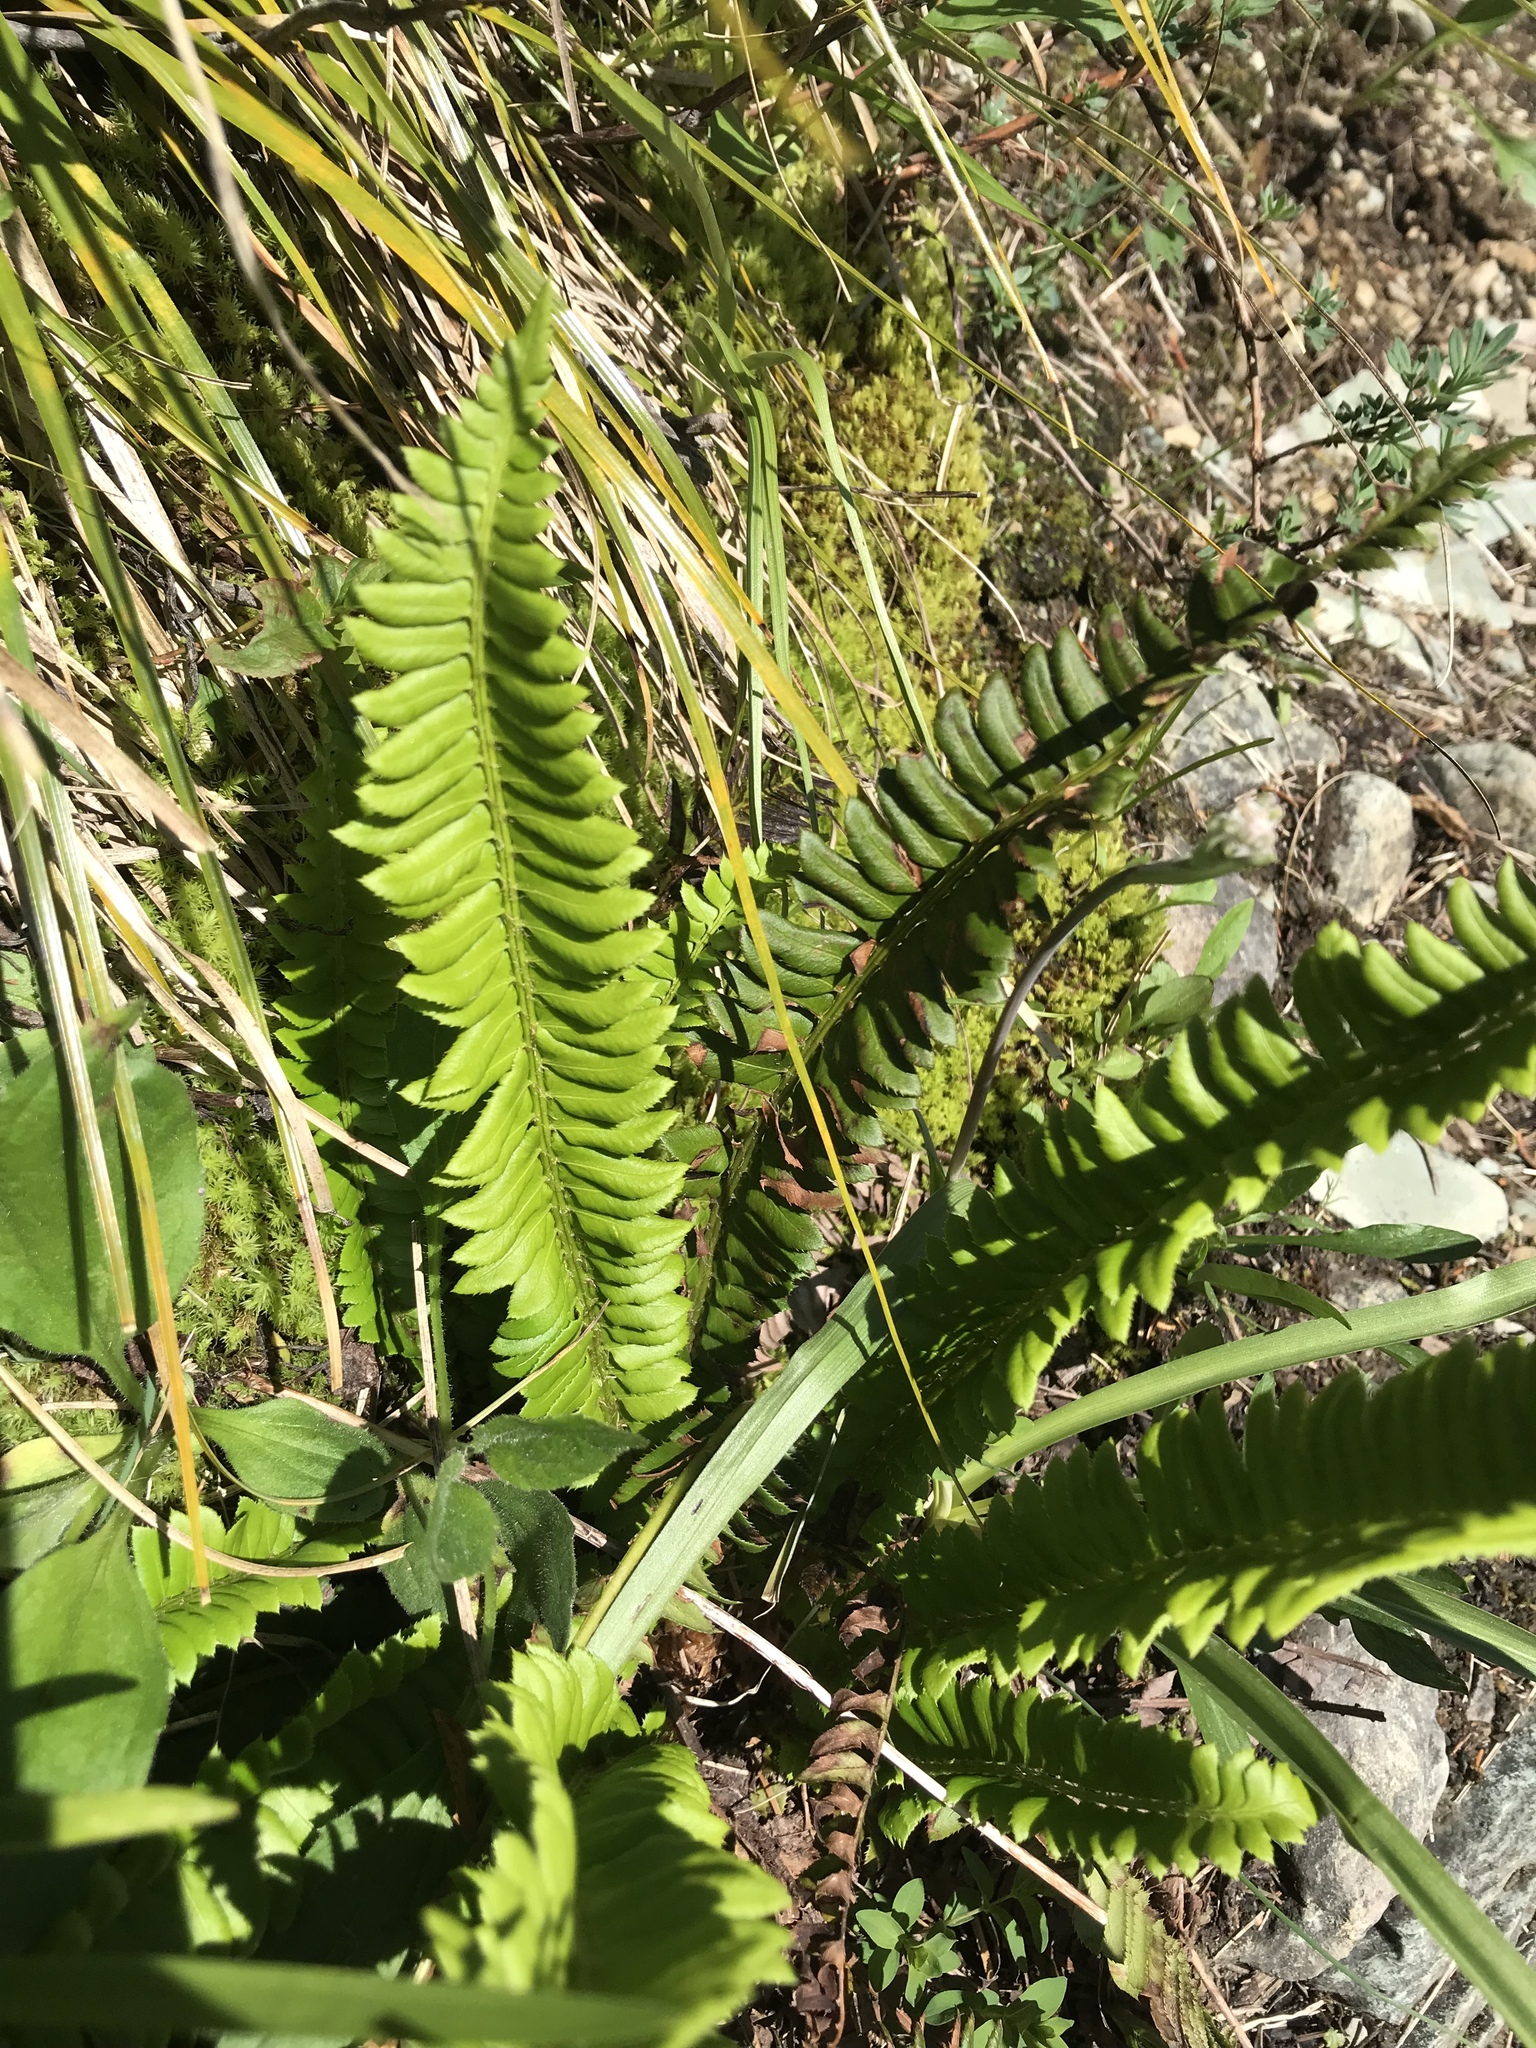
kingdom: Plantae
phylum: Tracheophyta
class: Polypodiopsida
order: Polypodiales
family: Dryopteridaceae
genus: Polystichum
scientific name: Polystichum lonchitis
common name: Holly fern
